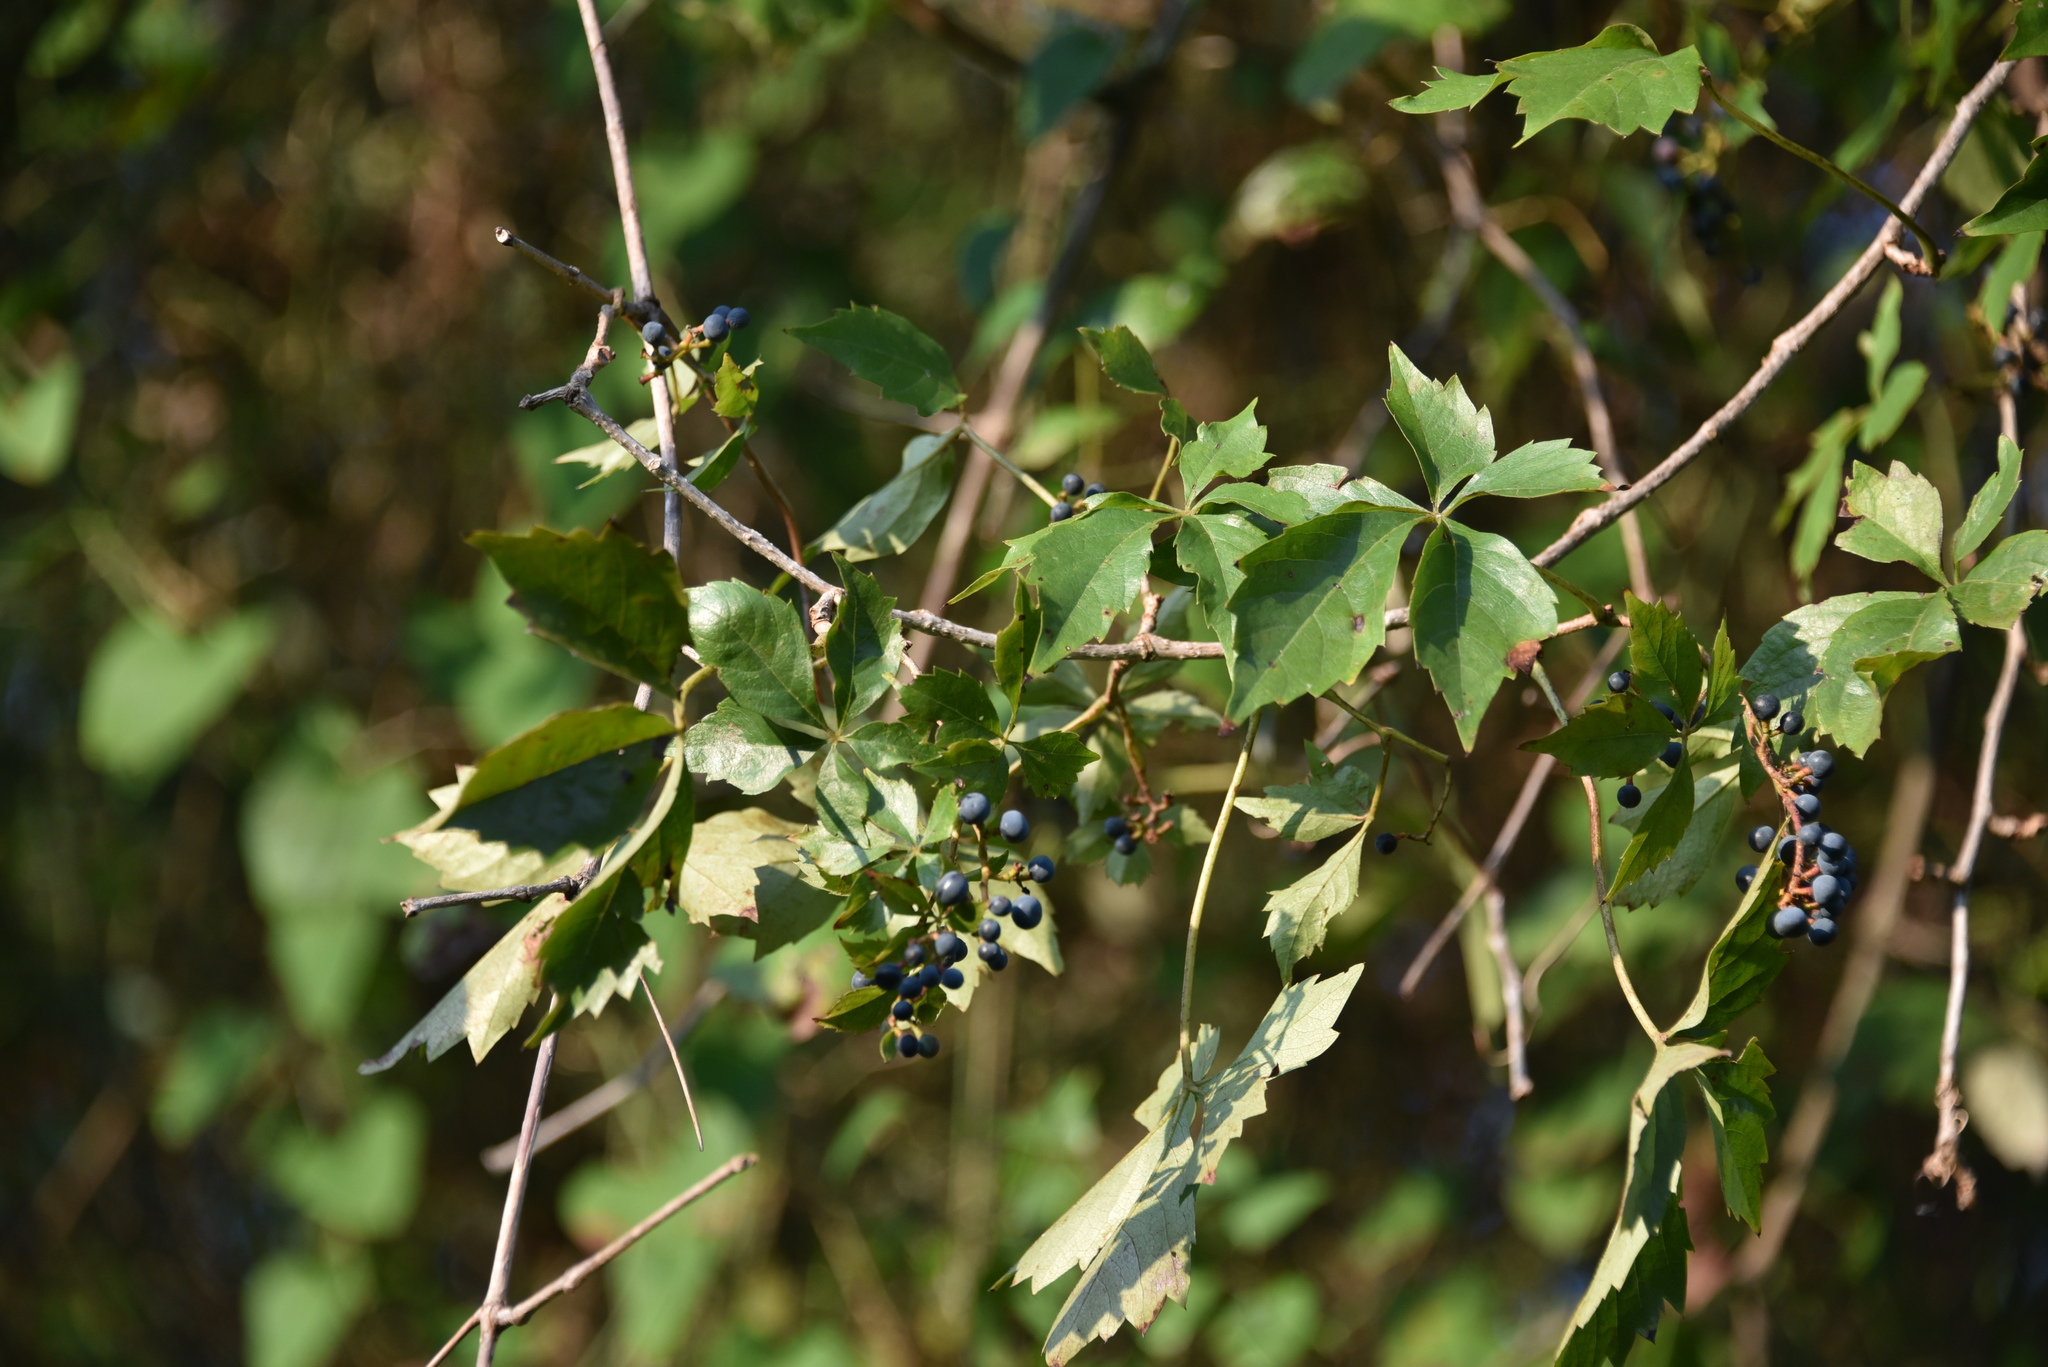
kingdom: Plantae
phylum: Tracheophyta
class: Magnoliopsida
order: Vitales
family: Vitaceae
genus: Parthenocissus
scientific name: Parthenocissus quinquefolia
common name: Virginia-creeper
